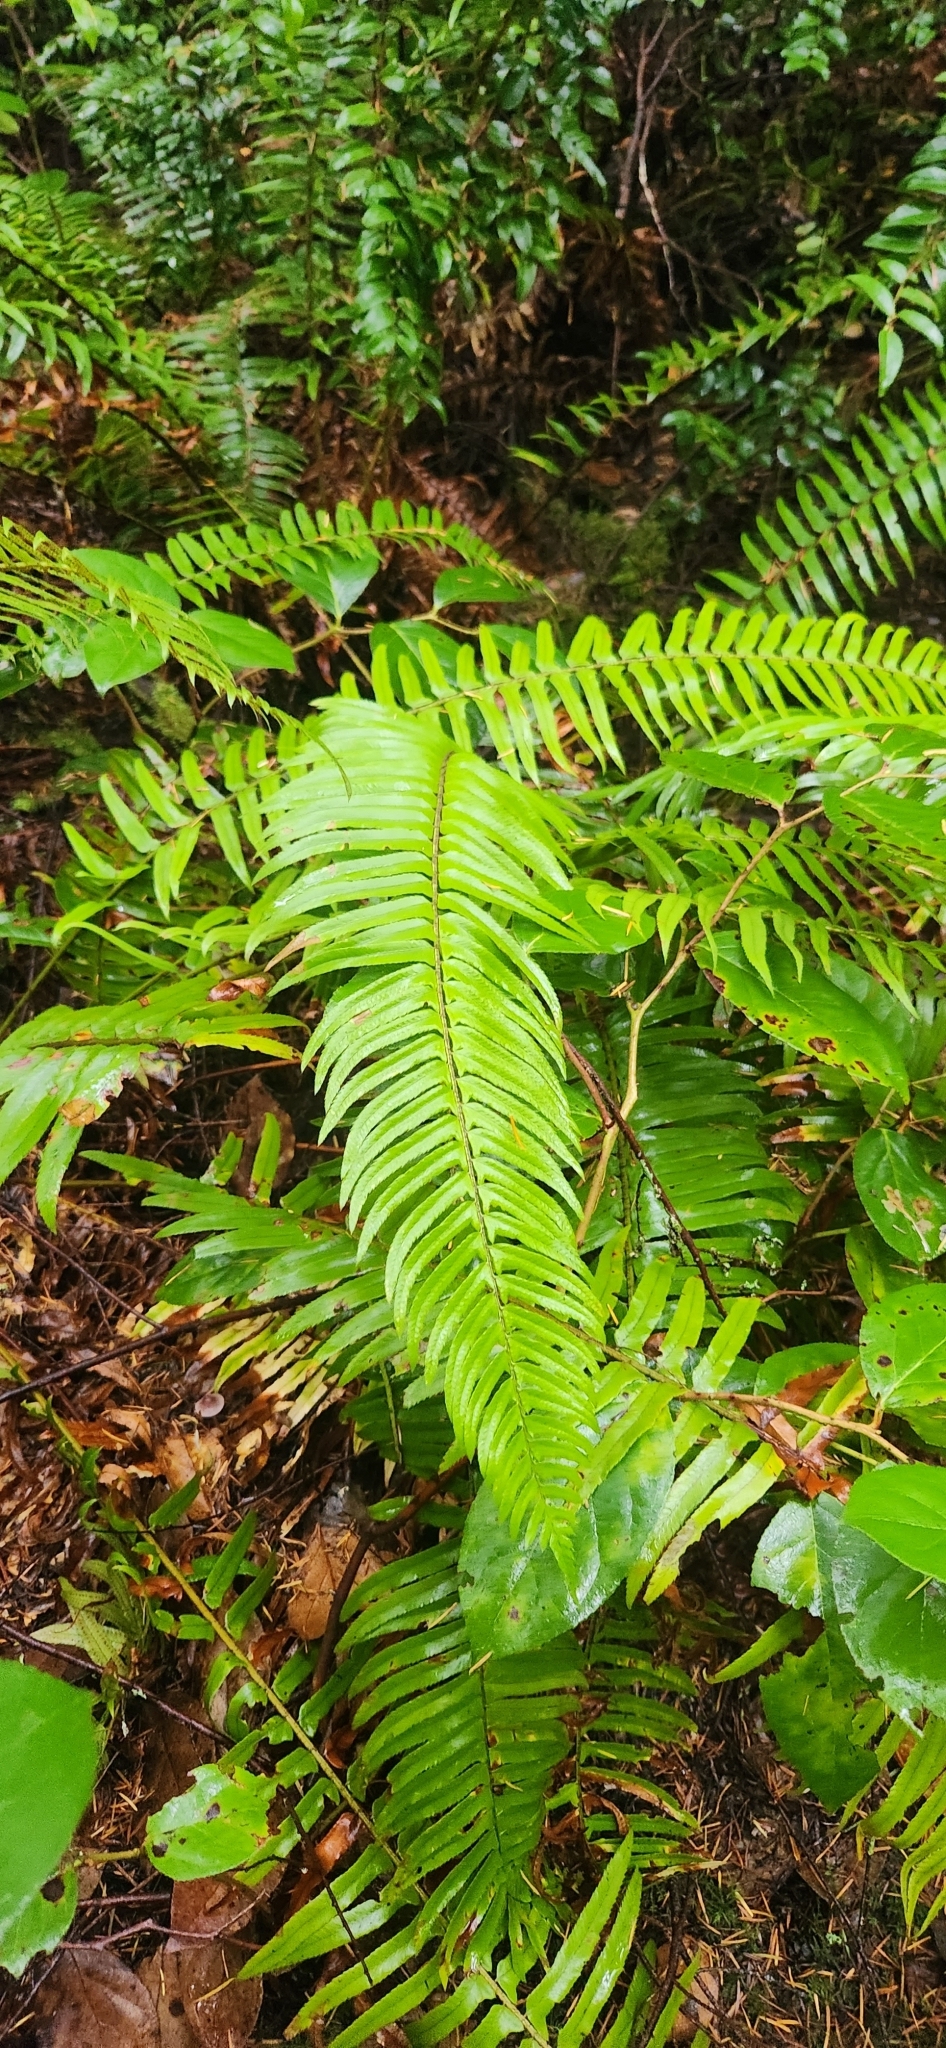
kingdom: Plantae
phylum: Tracheophyta
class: Polypodiopsida
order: Polypodiales
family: Dryopteridaceae
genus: Polystichum
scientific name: Polystichum munitum
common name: Western sword-fern
